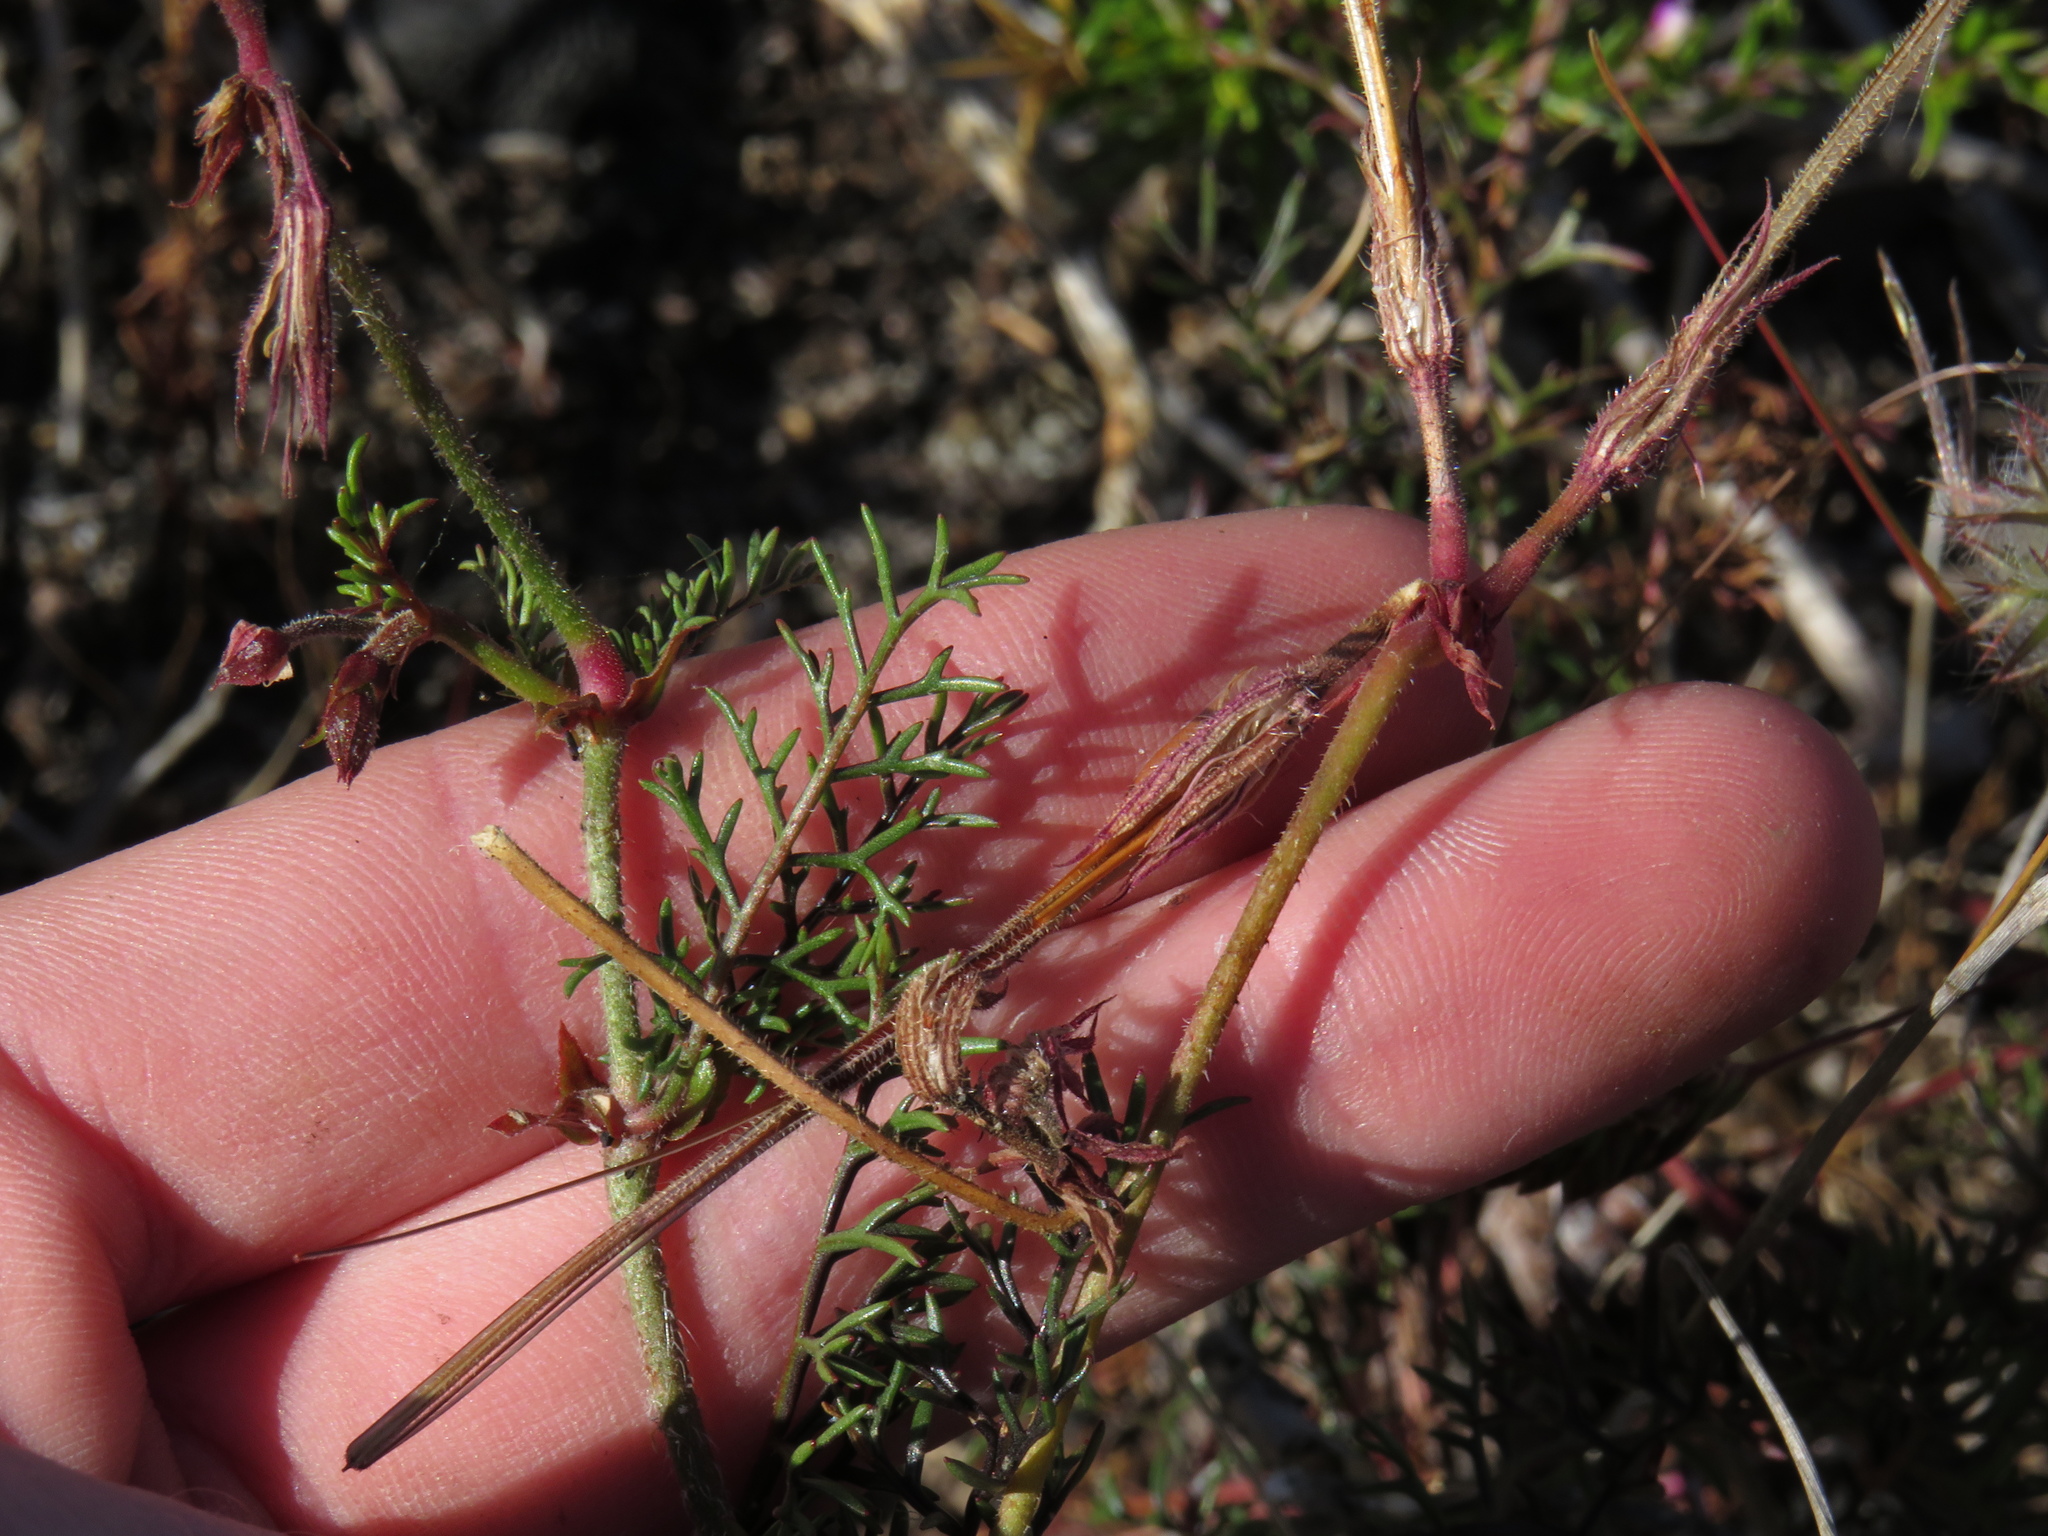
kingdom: Plantae
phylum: Tracheophyta
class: Magnoliopsida
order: Geraniales
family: Geraniaceae
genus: Pelargonium
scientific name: Pelargonium myrrhifolium
